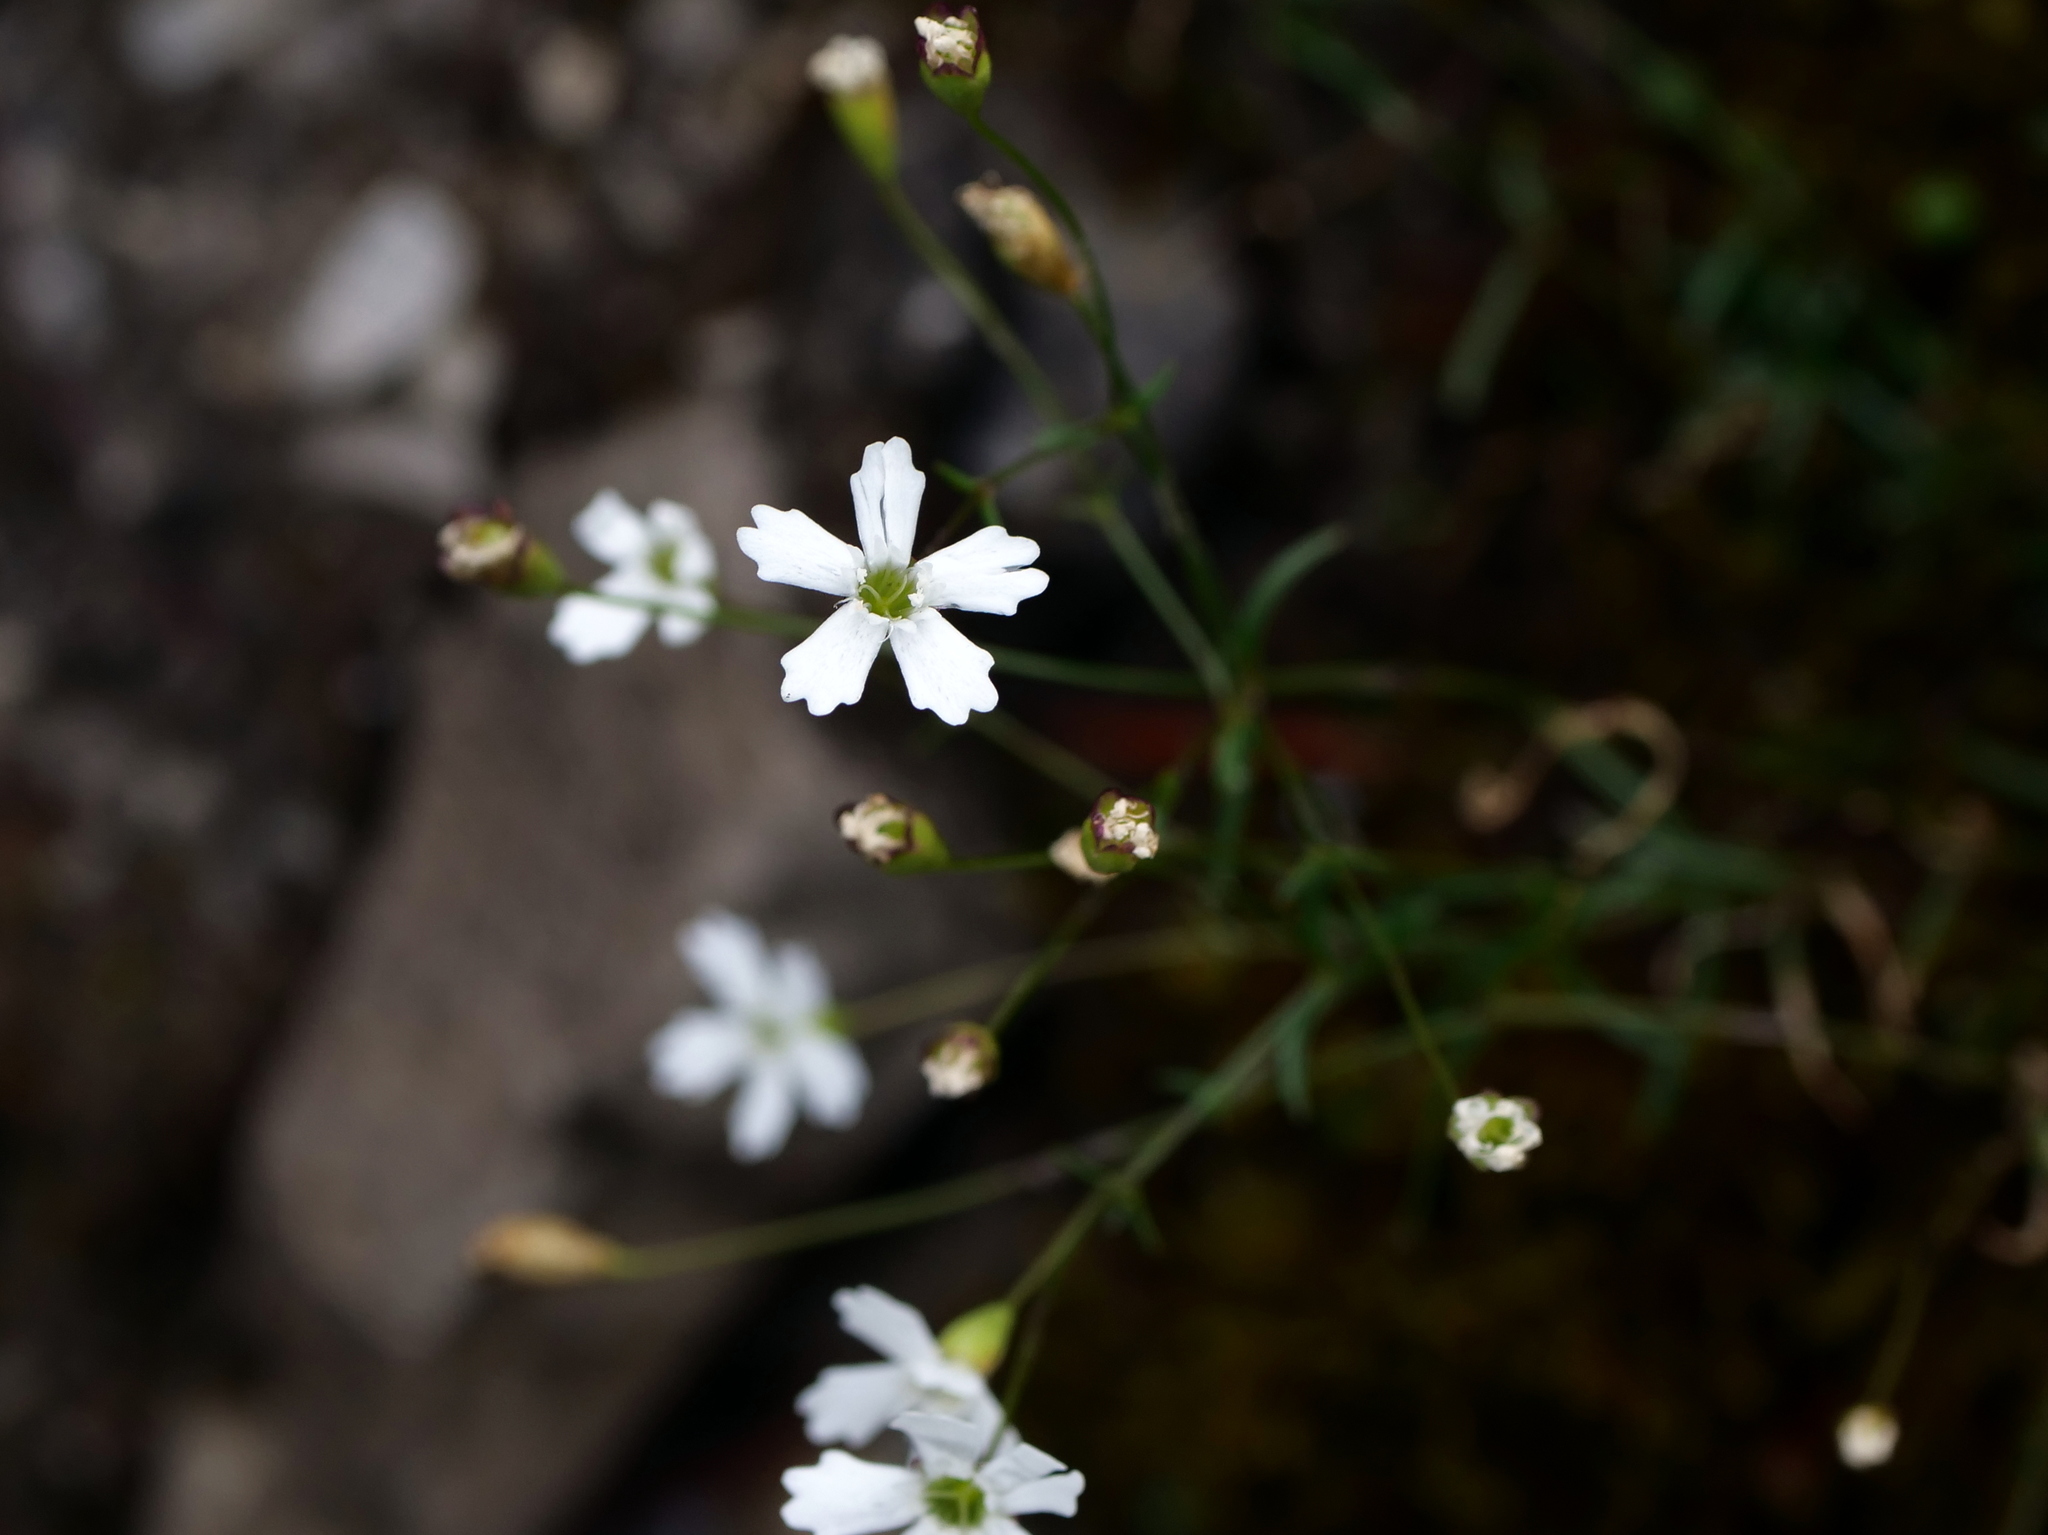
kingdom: Plantae
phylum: Tracheophyta
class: Magnoliopsida
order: Caryophyllales
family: Caryophyllaceae
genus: Heliosperma
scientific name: Heliosperma pusillum
